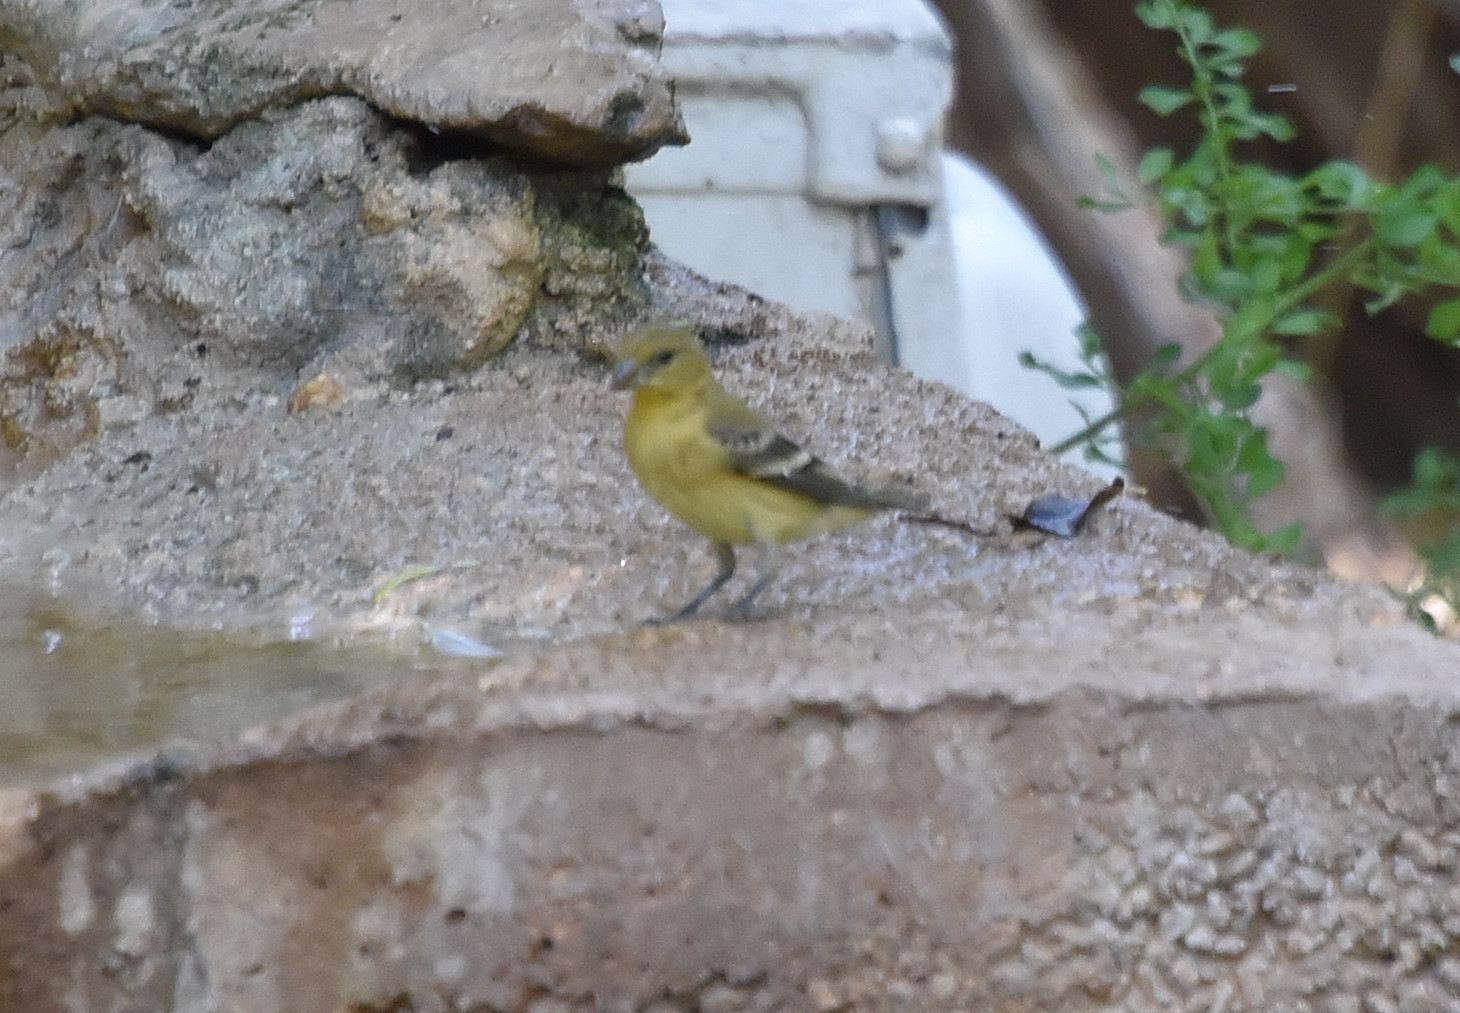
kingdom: Animalia
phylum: Chordata
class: Aves
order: Passeriformes
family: Fringillidae
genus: Spinus
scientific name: Spinus psaltria
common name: Lesser goldfinch
